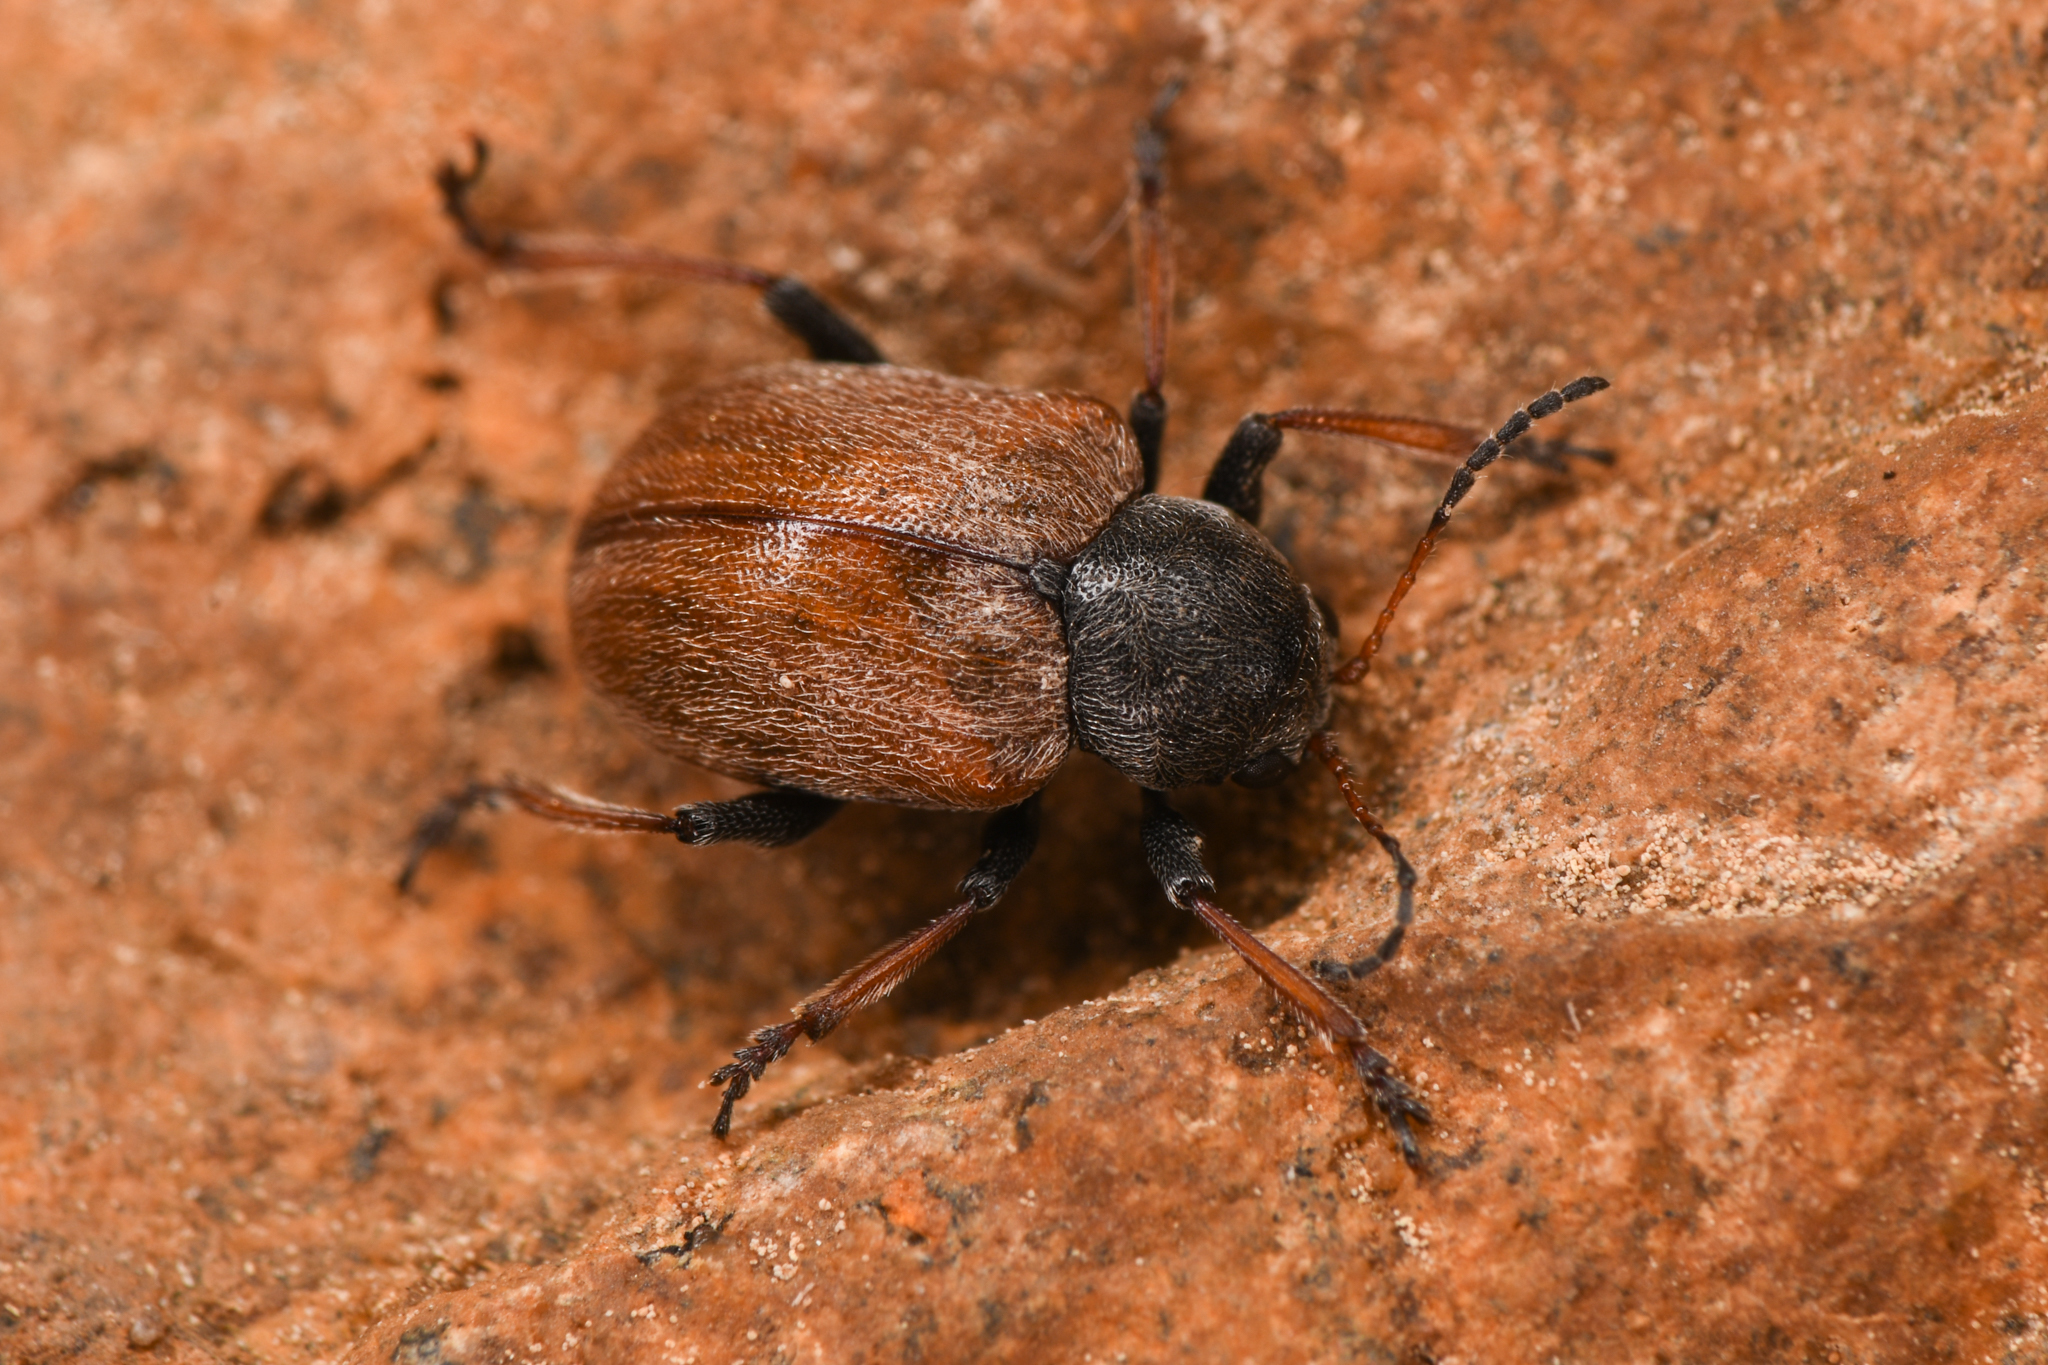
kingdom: Animalia
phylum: Arthropoda
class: Insecta
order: Coleoptera
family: Chrysomelidae
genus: Bromius
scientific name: Bromius obscurus
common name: Western grape rootworm
